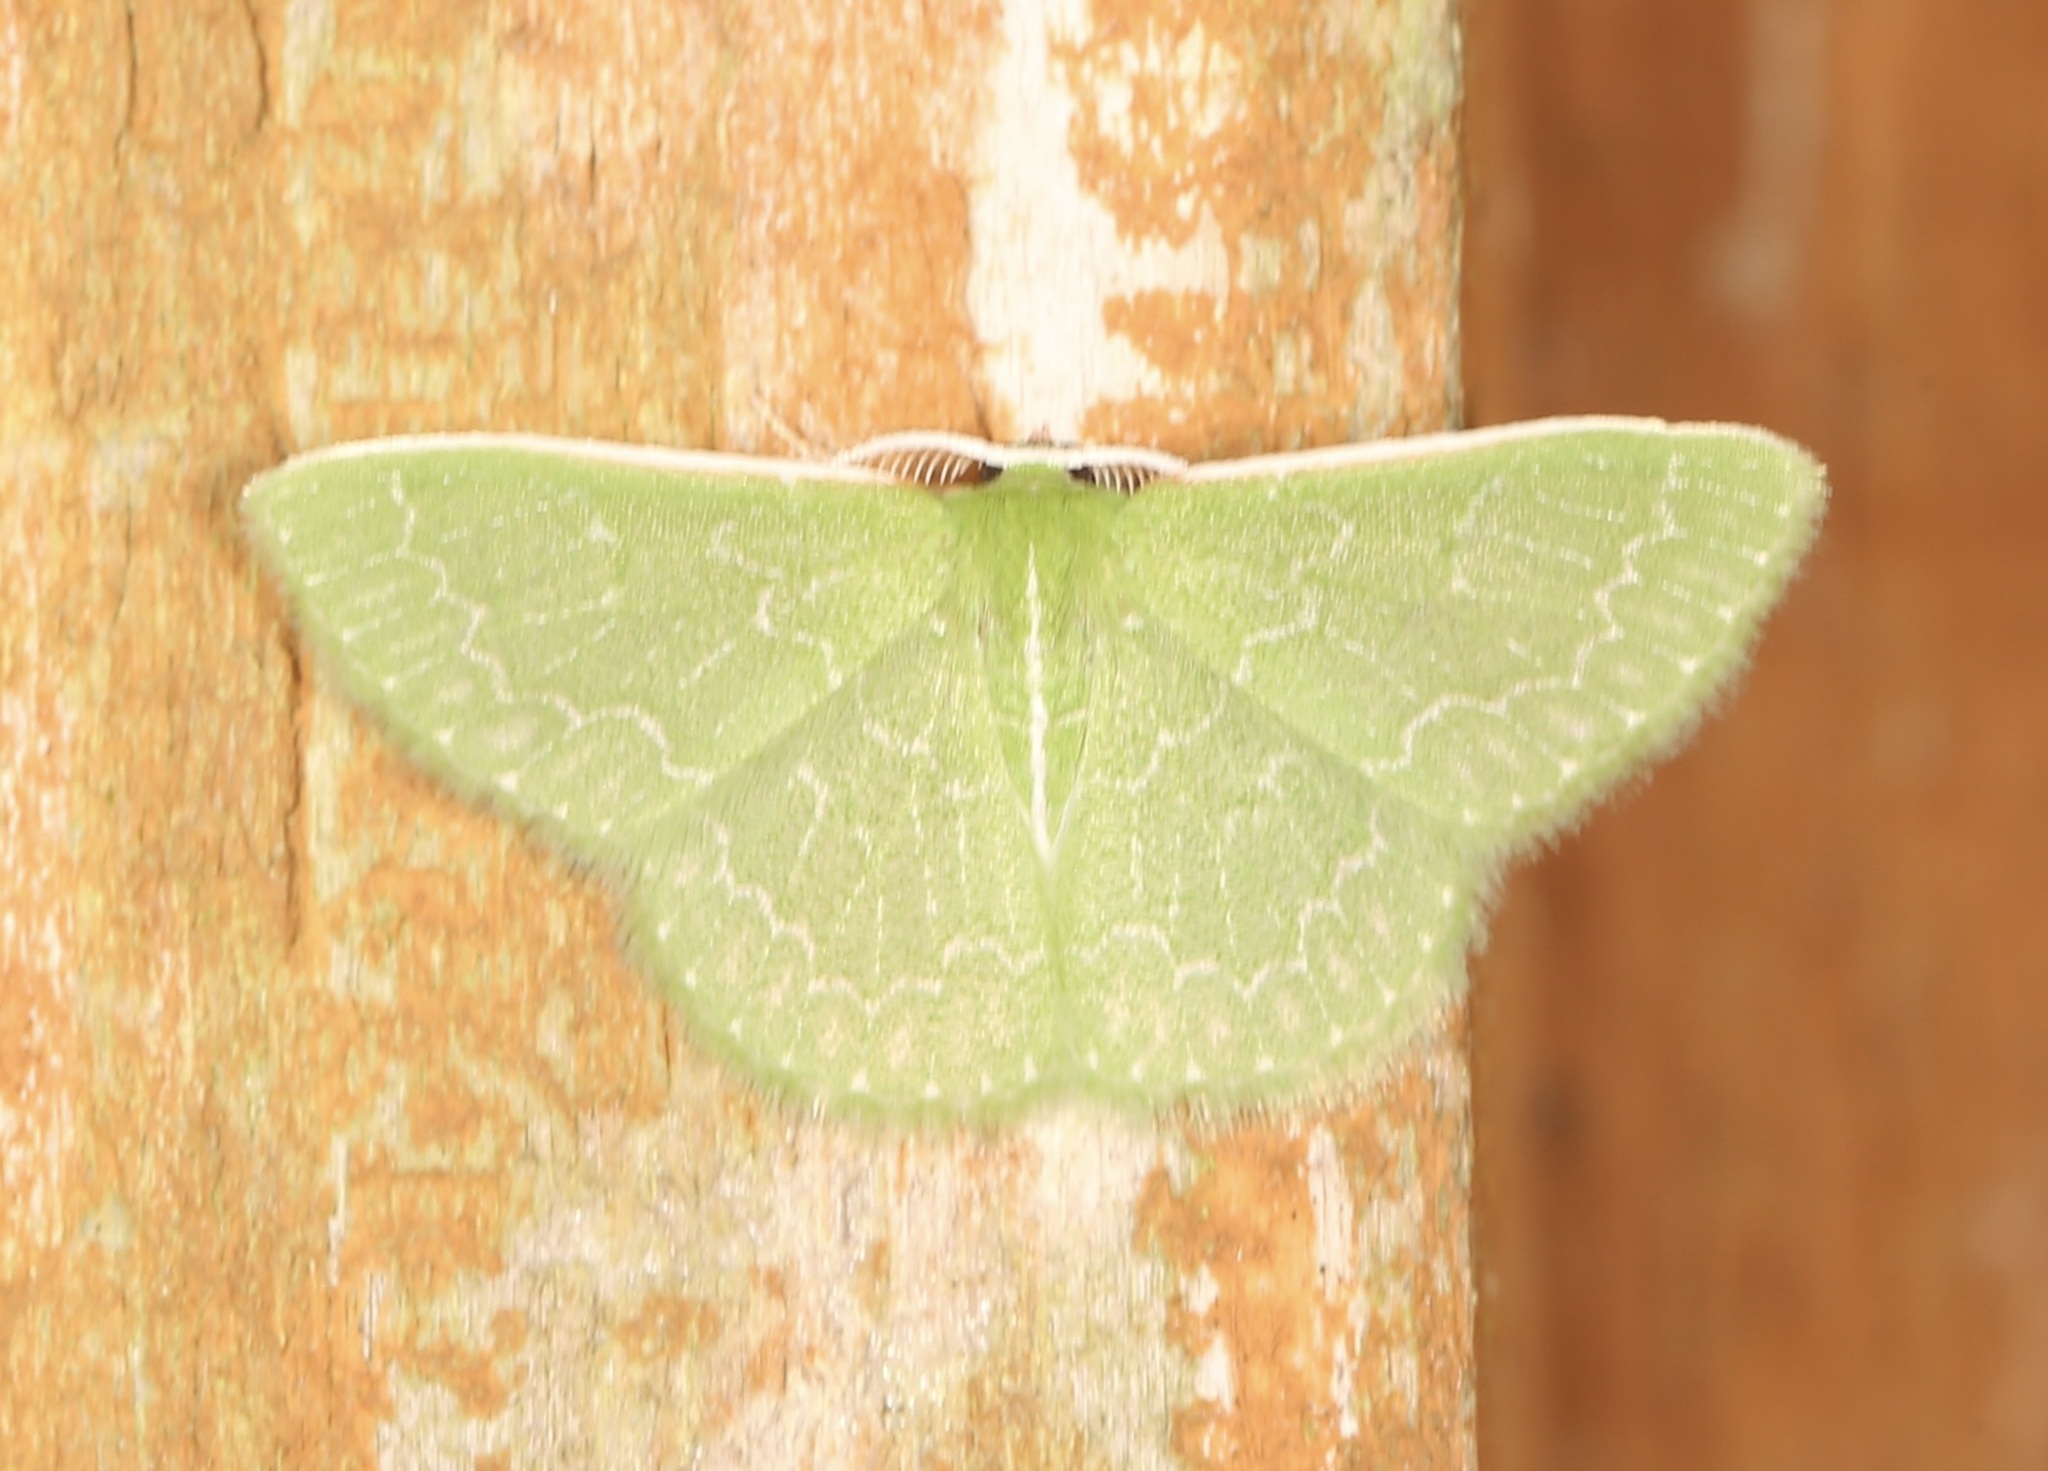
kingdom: Animalia
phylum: Arthropoda
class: Insecta
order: Lepidoptera
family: Geometridae
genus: Synchlora
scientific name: Synchlora frondaria
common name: Southern emerald
